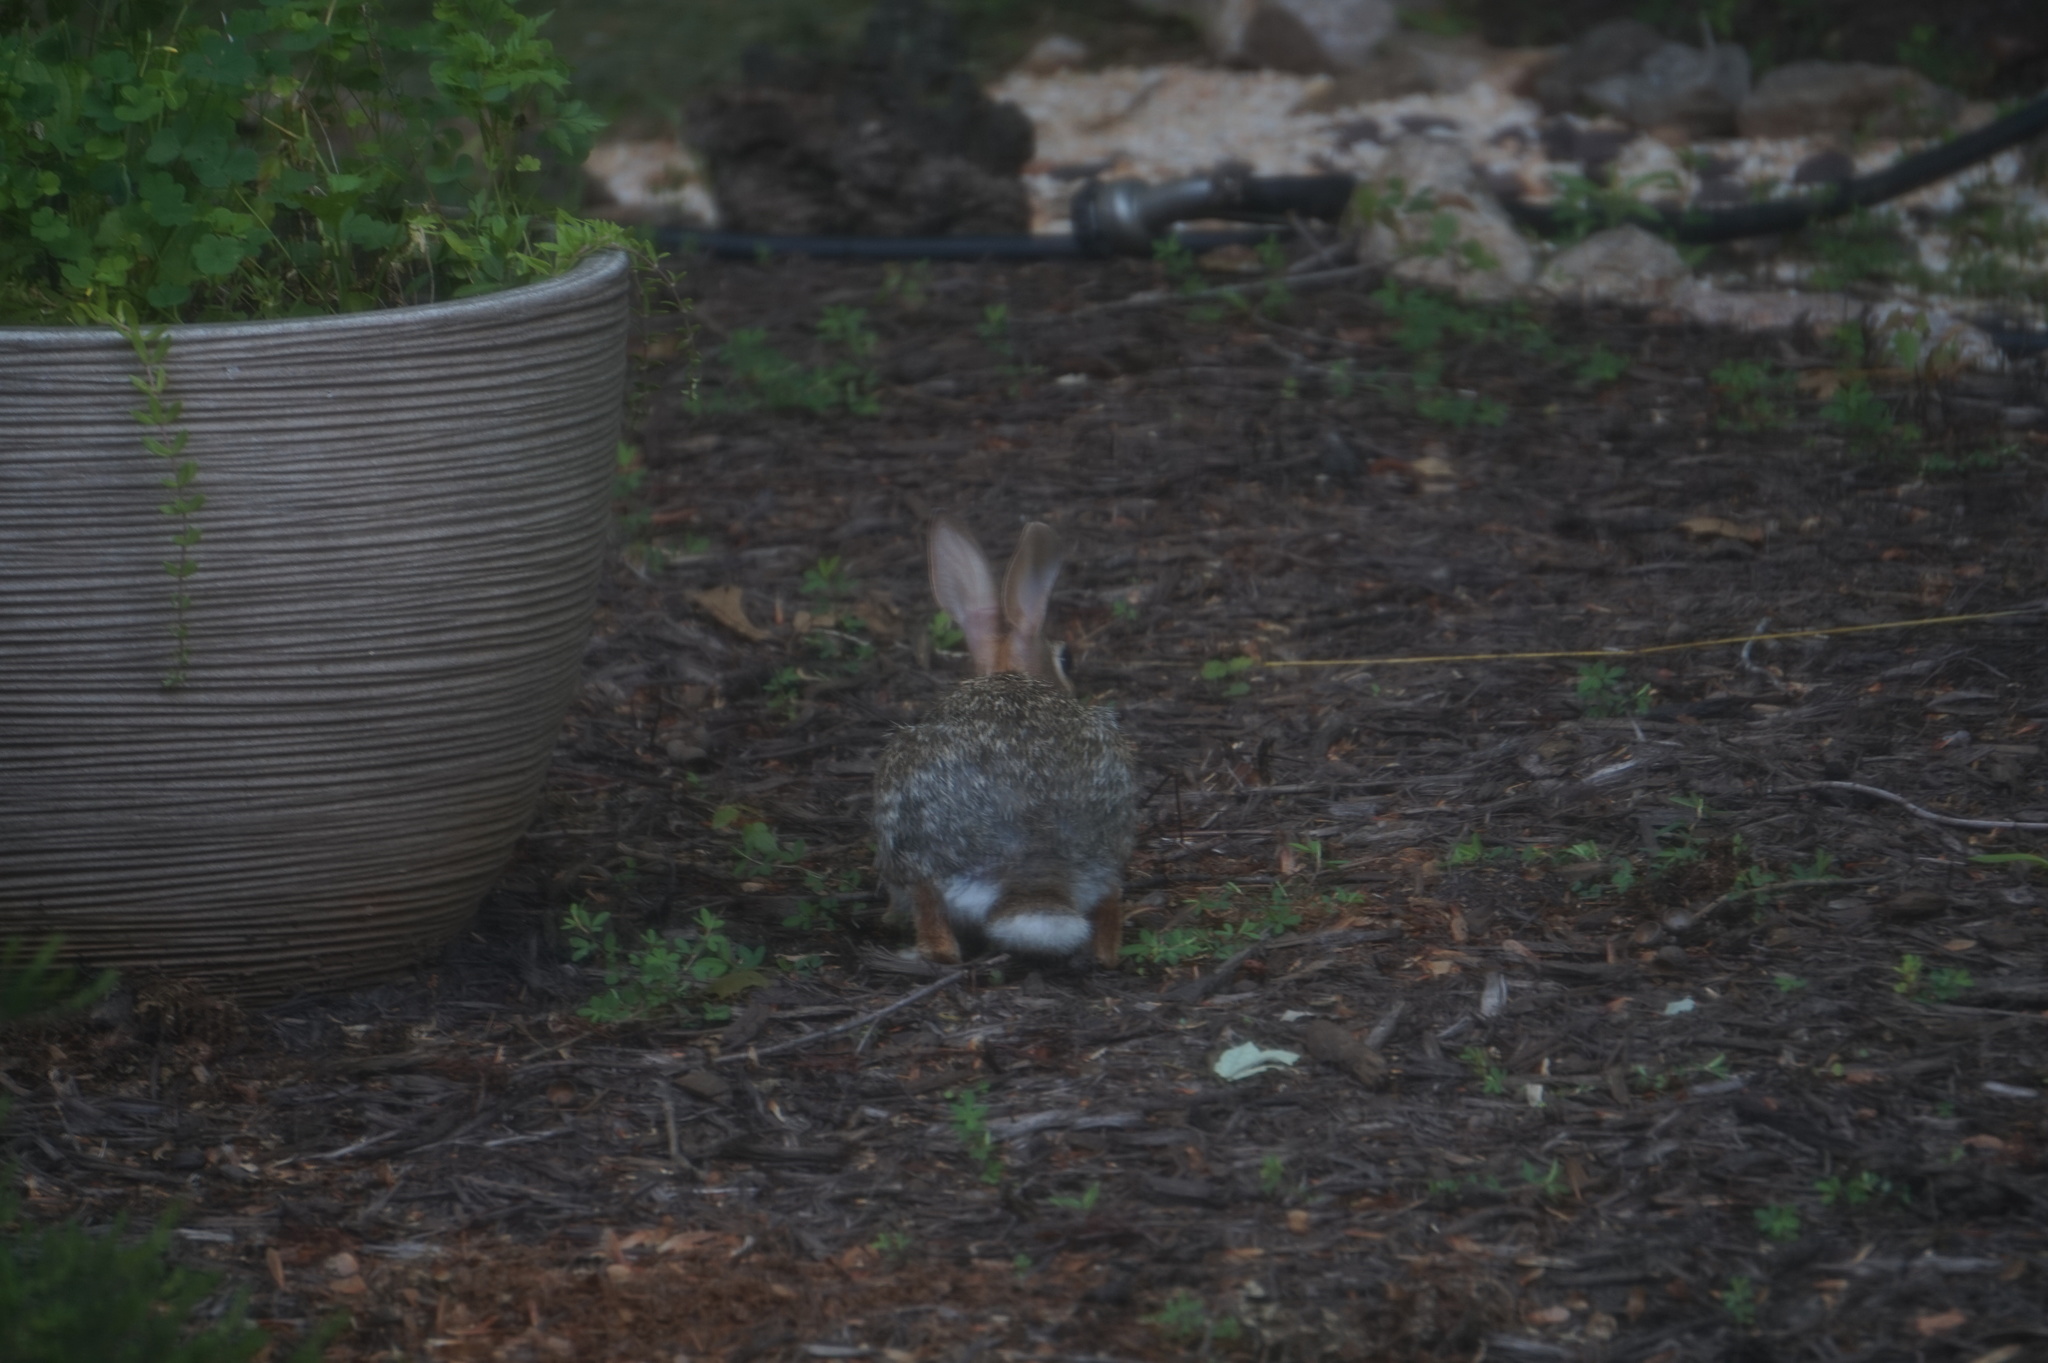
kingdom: Animalia
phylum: Chordata
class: Mammalia
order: Lagomorpha
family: Leporidae
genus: Sylvilagus
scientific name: Sylvilagus floridanus
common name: Eastern cottontail
